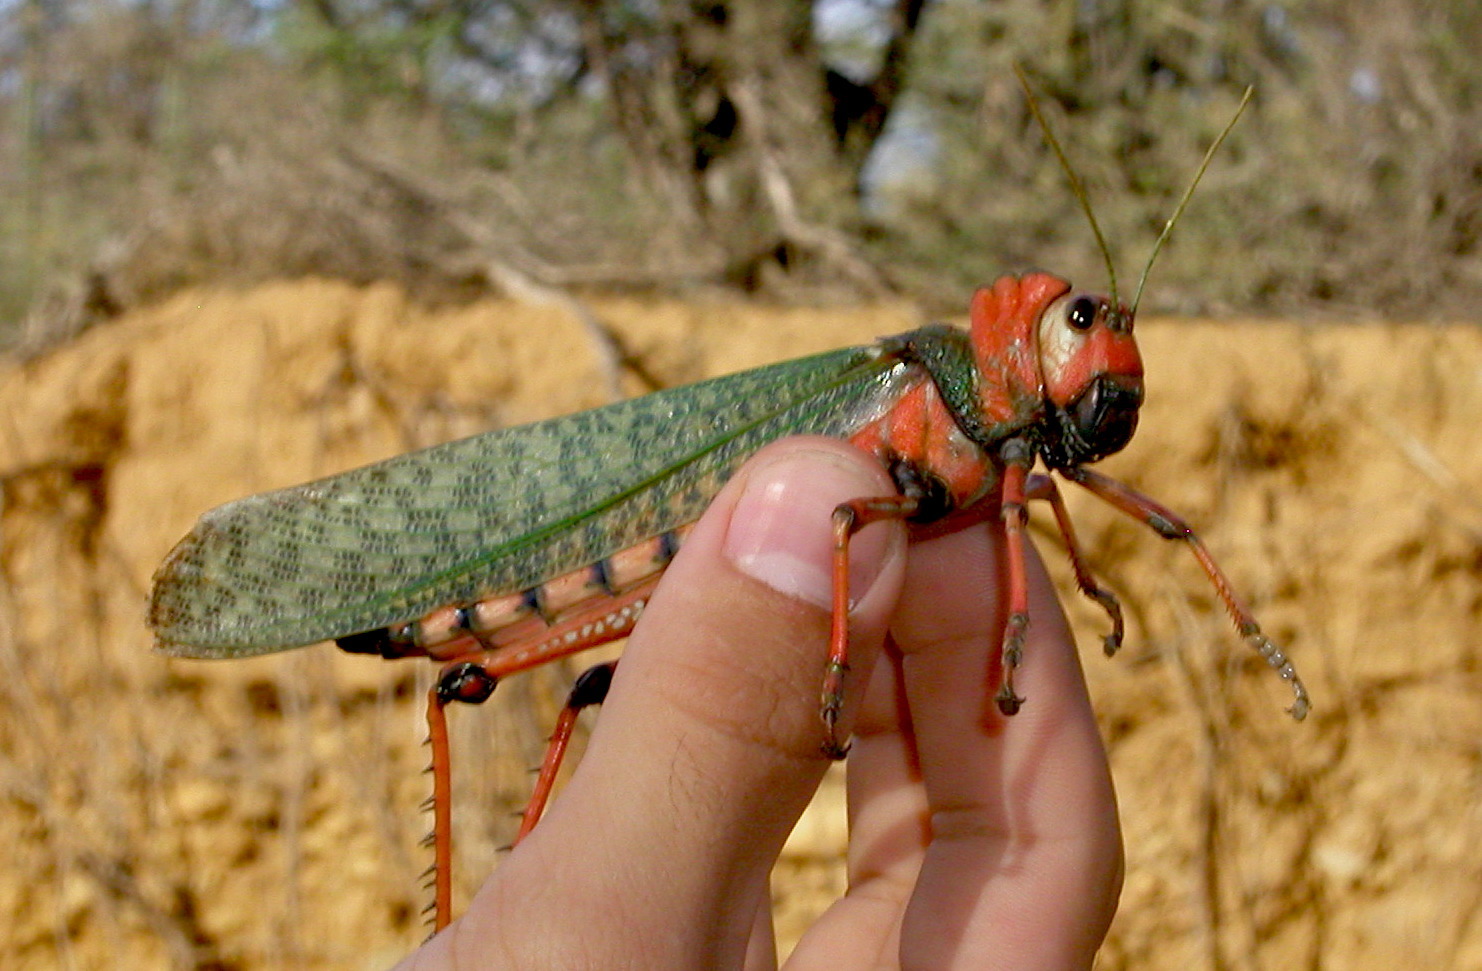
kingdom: Animalia
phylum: Arthropoda
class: Insecta
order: Orthoptera
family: Romaleidae
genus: Tropidacris
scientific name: Tropidacris collaris
